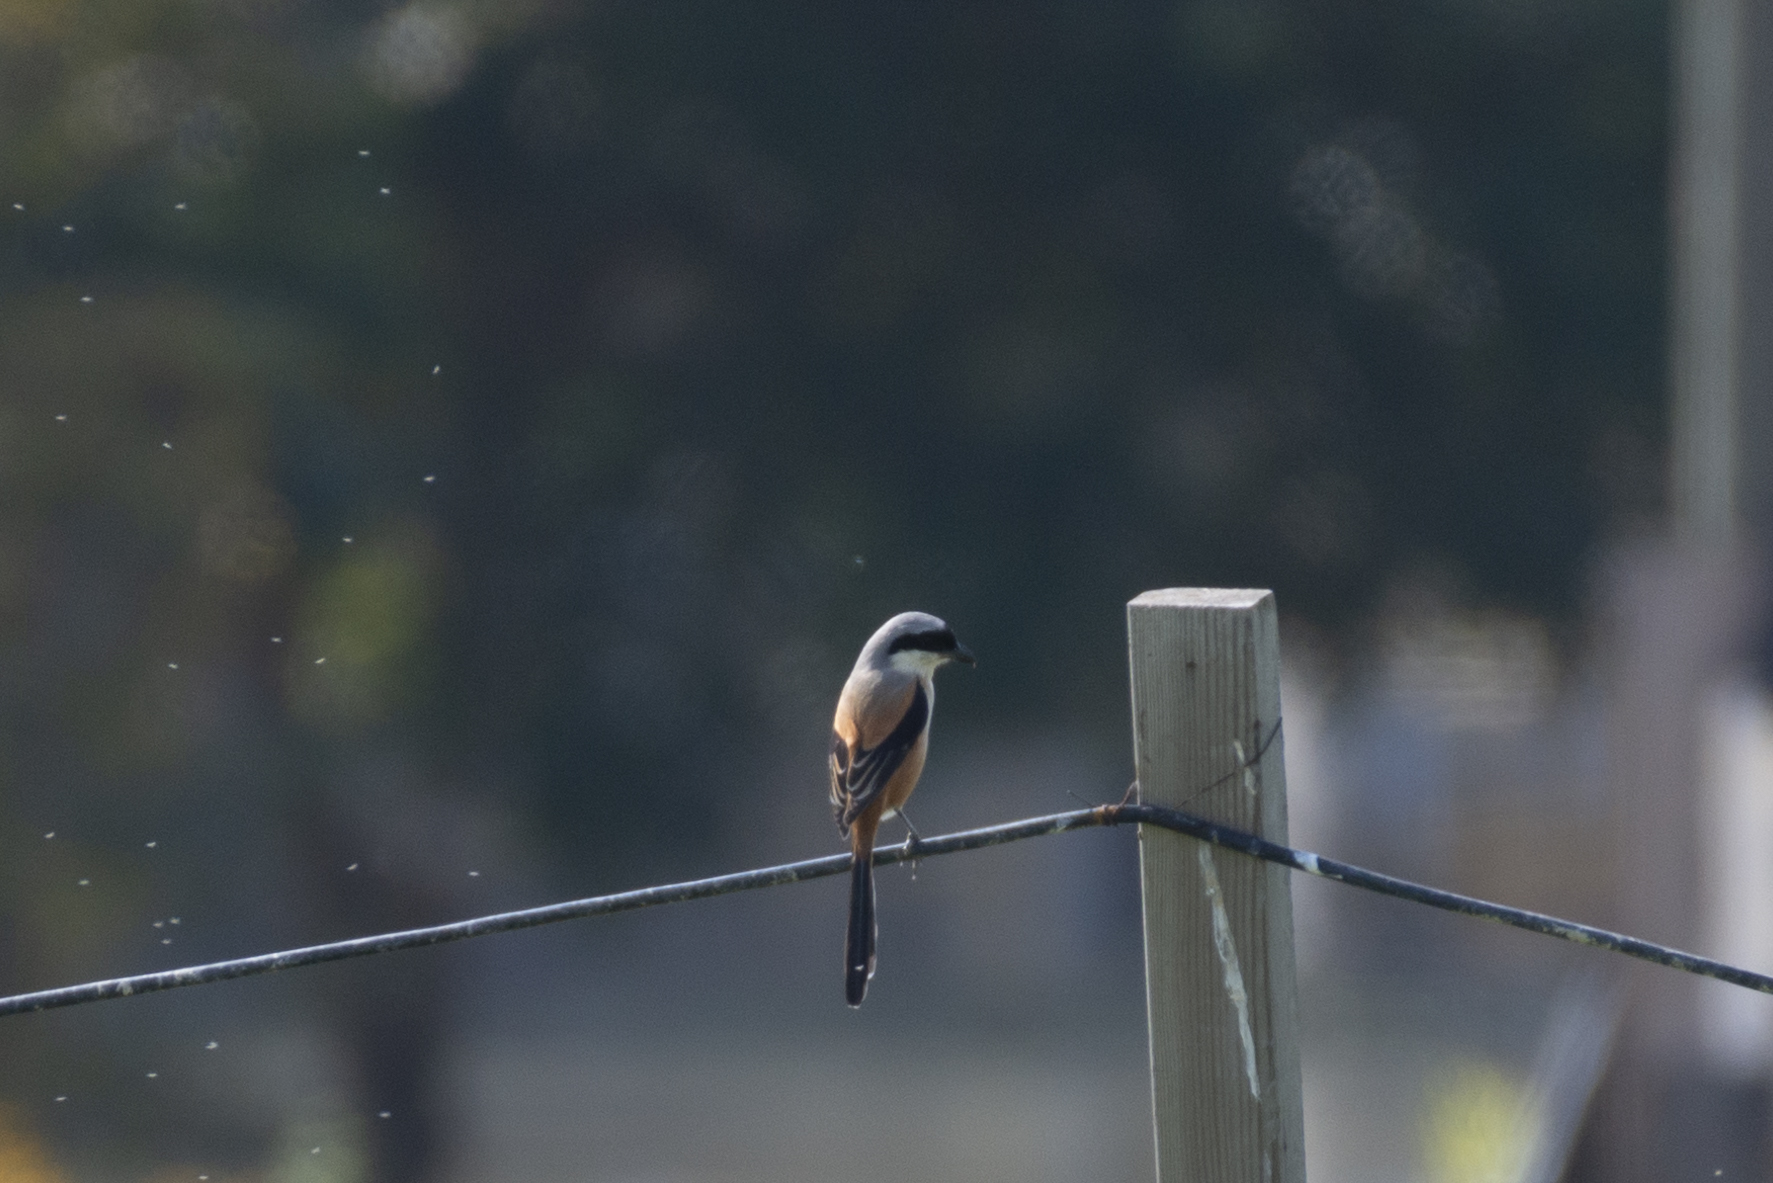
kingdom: Animalia
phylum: Chordata
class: Aves
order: Passeriformes
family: Laniidae
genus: Lanius
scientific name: Lanius schach
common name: Long-tailed shrike
